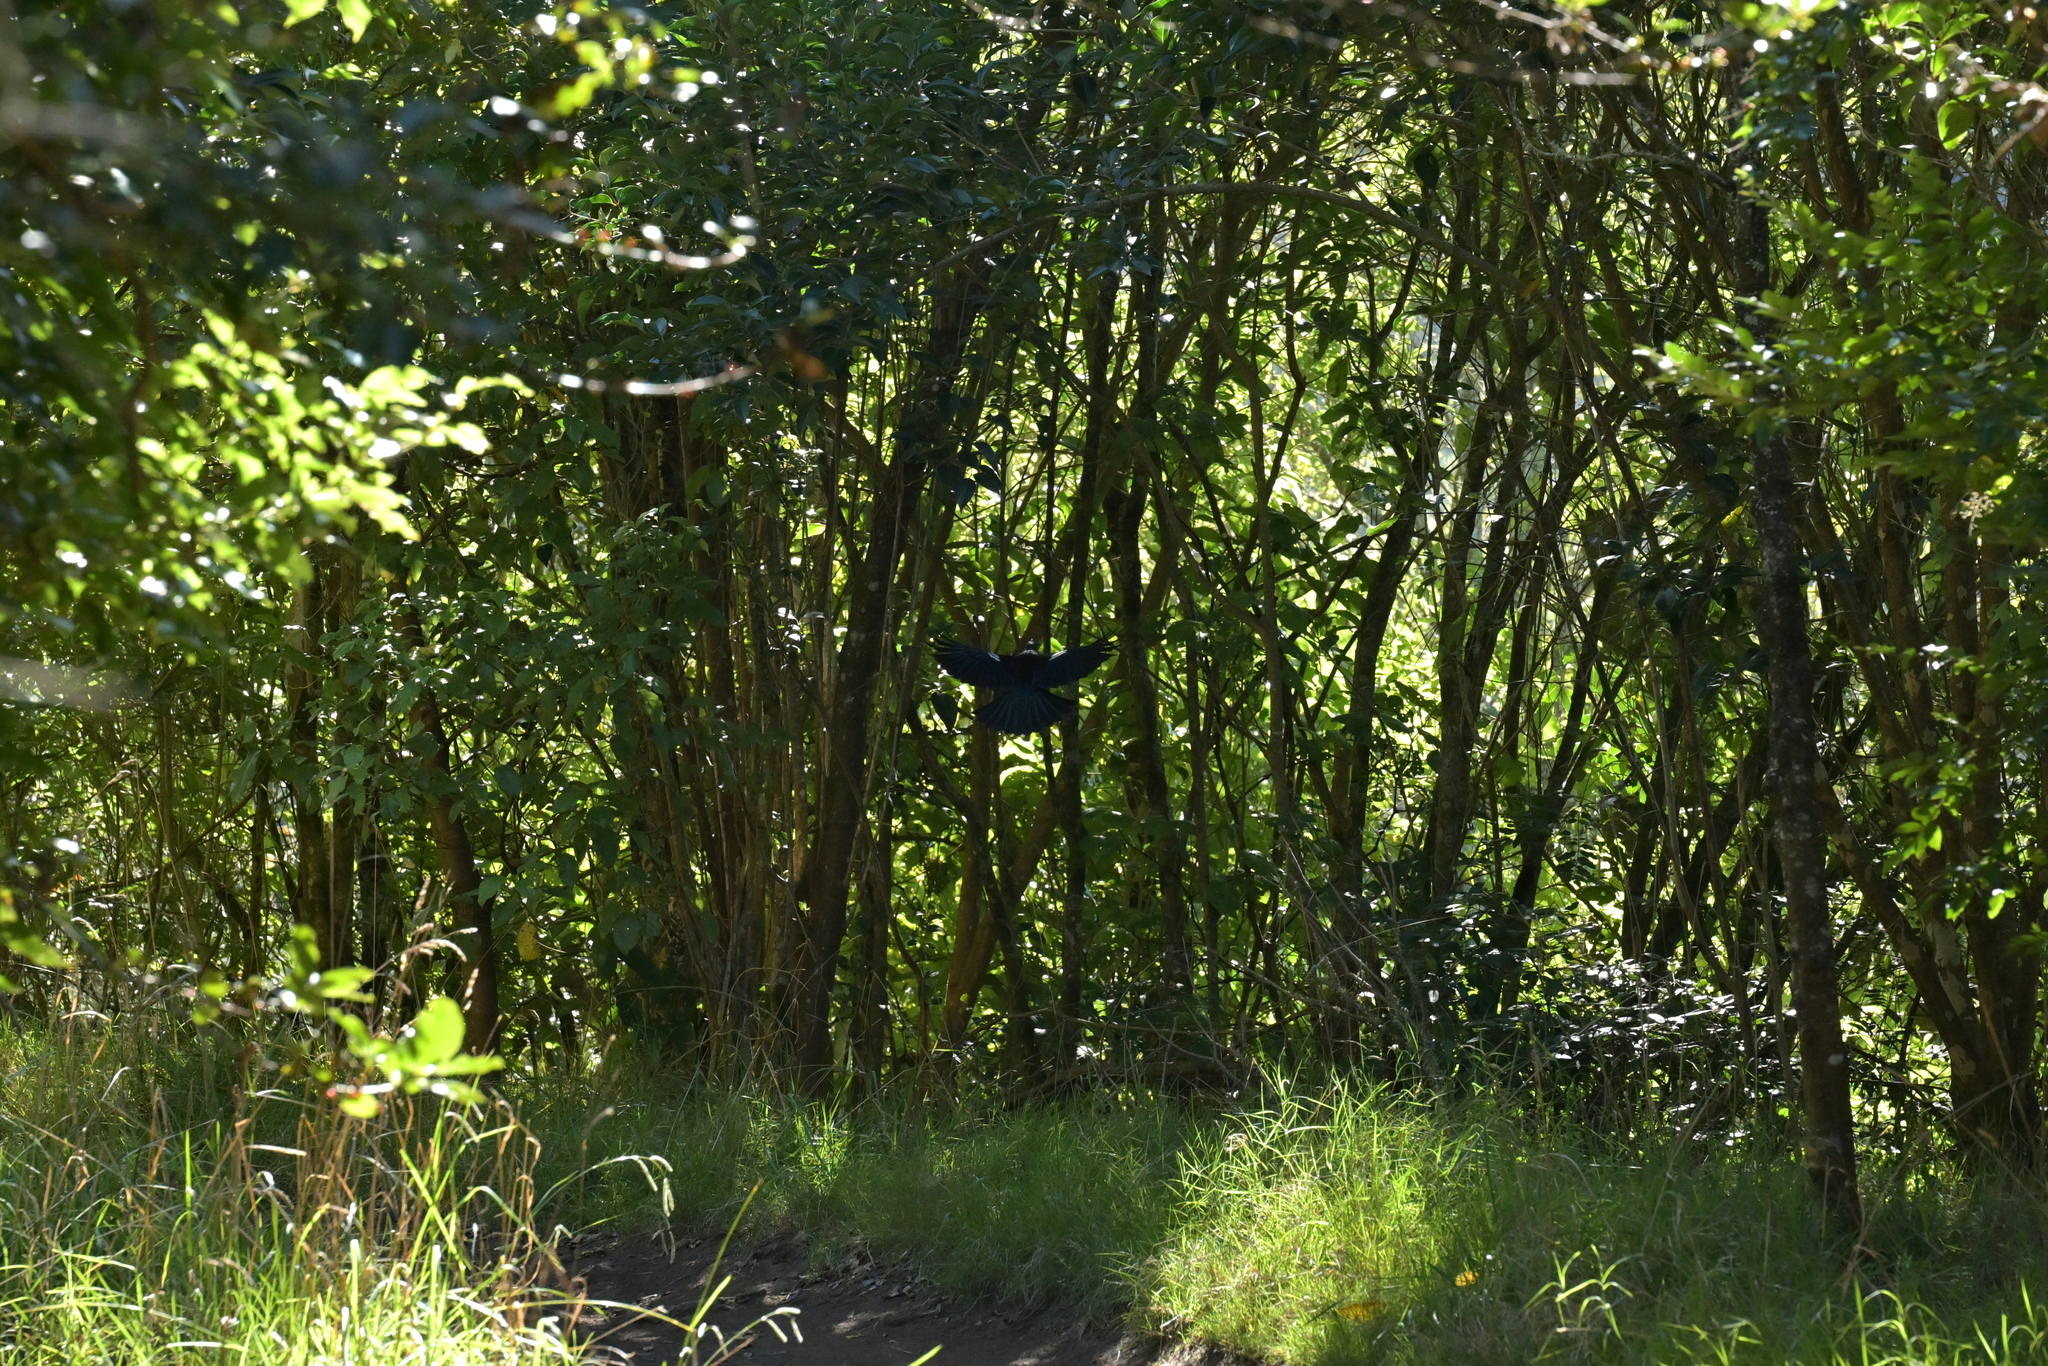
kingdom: Animalia
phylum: Chordata
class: Aves
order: Passeriformes
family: Meliphagidae
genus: Prosthemadera
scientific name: Prosthemadera novaeseelandiae
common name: Tui
